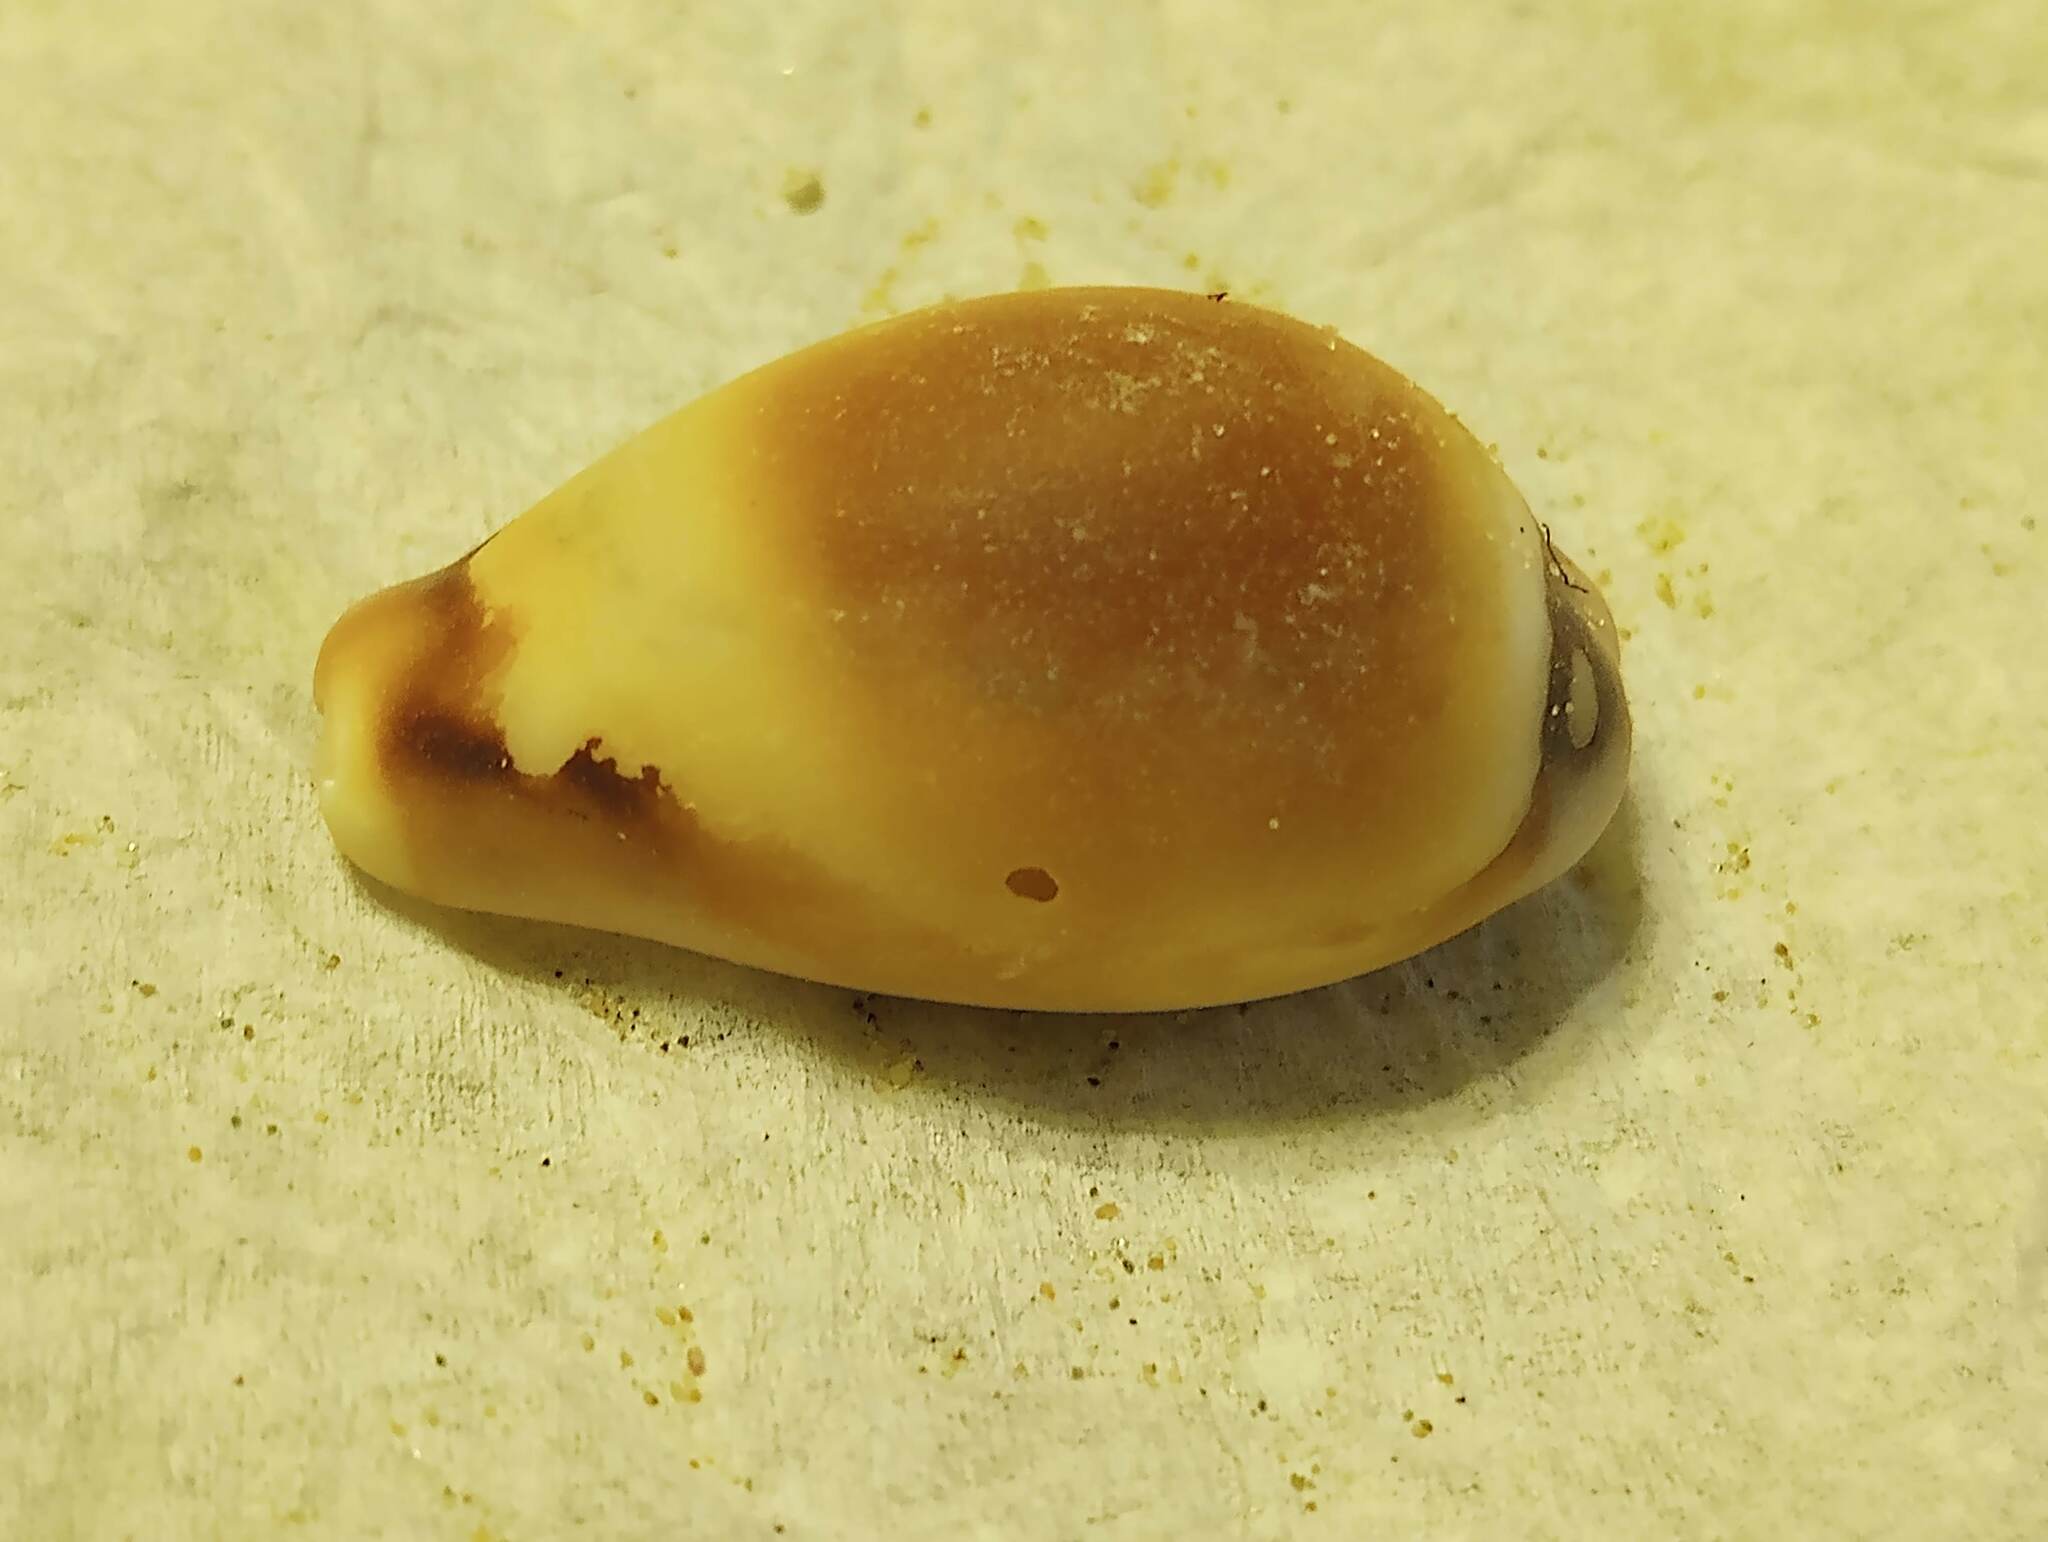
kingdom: Animalia
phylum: Mollusca
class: Gastropoda
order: Littorinimorpha
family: Cypraeidae
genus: Neobernaya
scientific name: Neobernaya spadicea
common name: Chestnut cowrie
